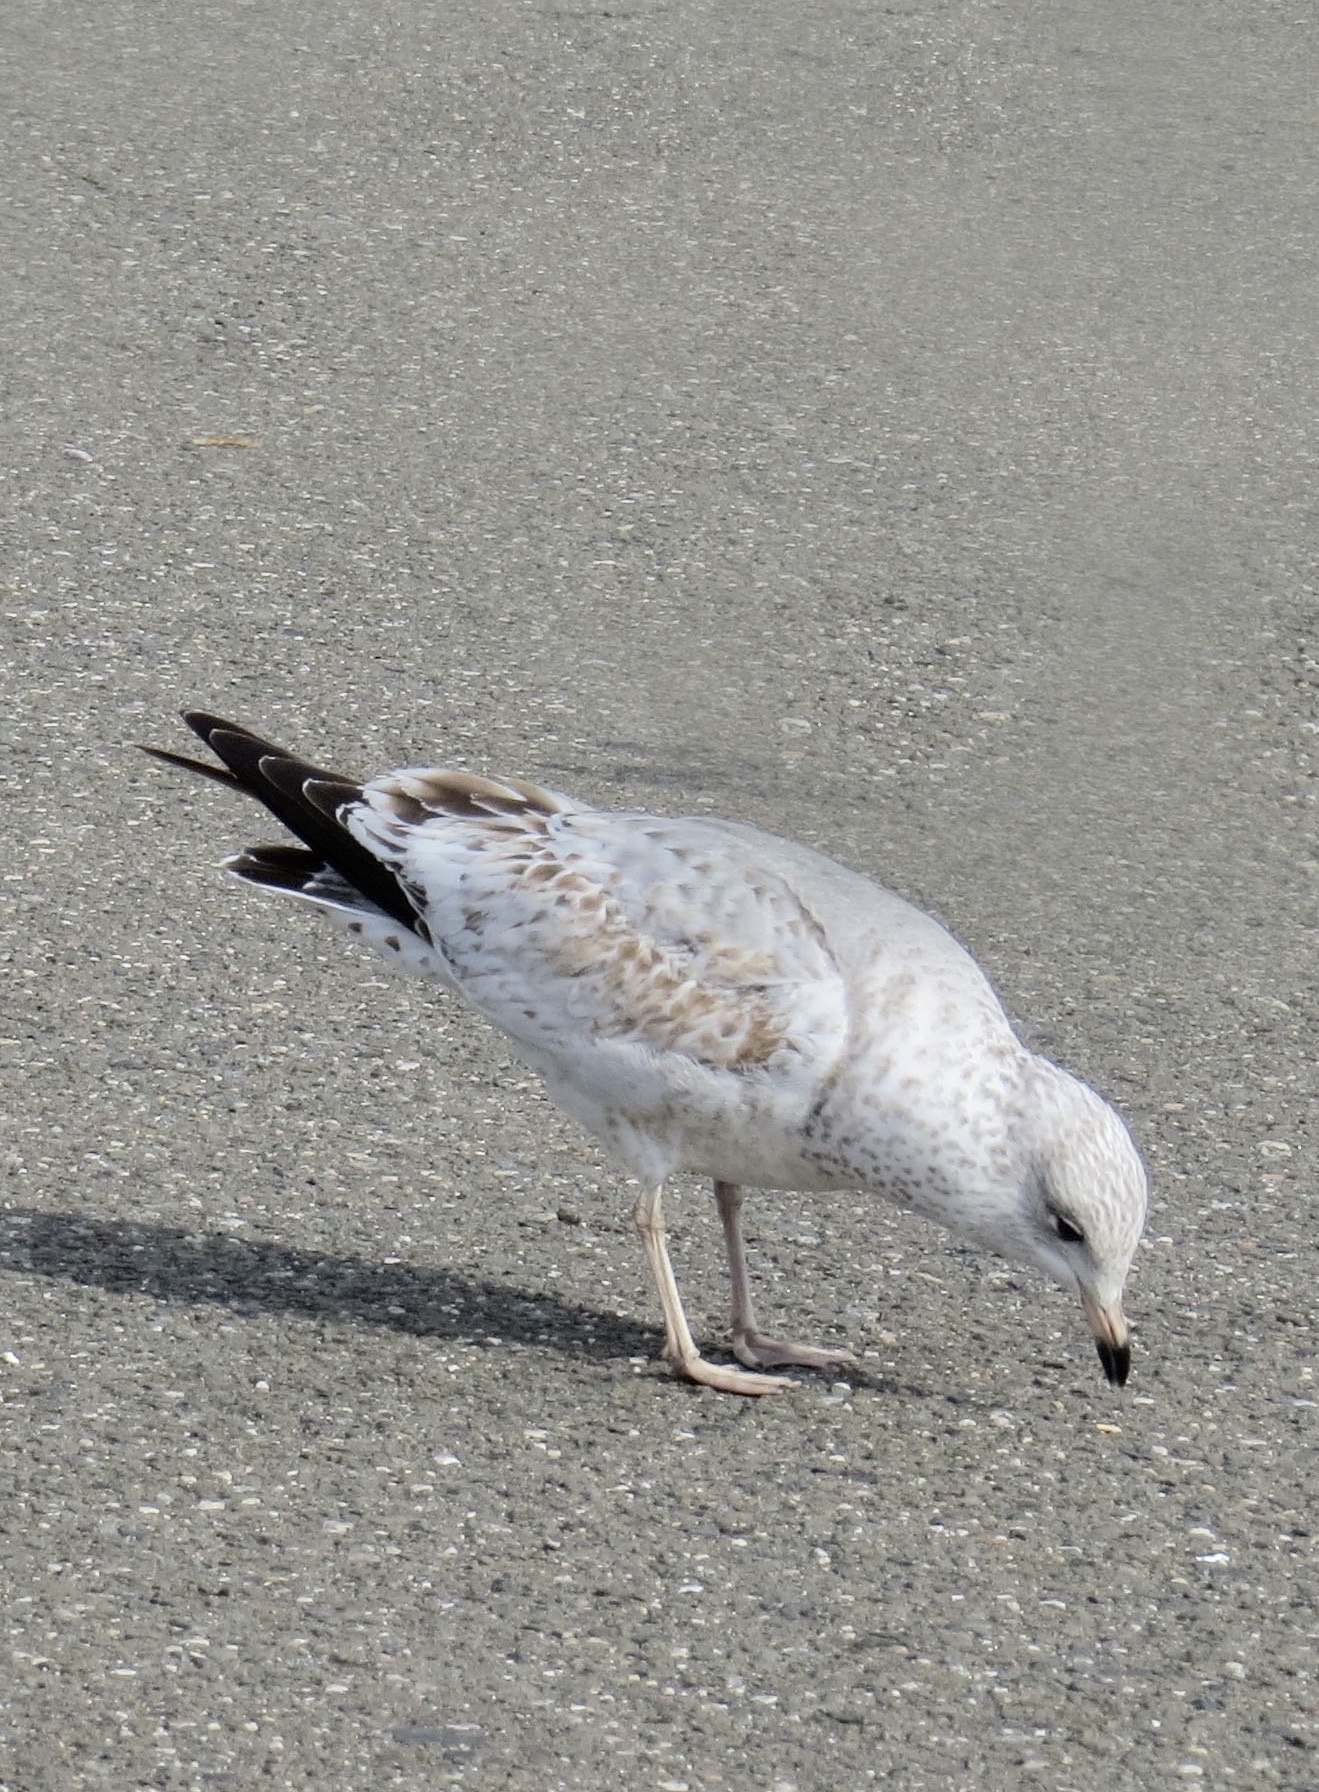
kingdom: Animalia
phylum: Chordata
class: Aves
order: Charadriiformes
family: Laridae
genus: Larus
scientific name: Larus delawarensis
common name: Ring-billed gull
